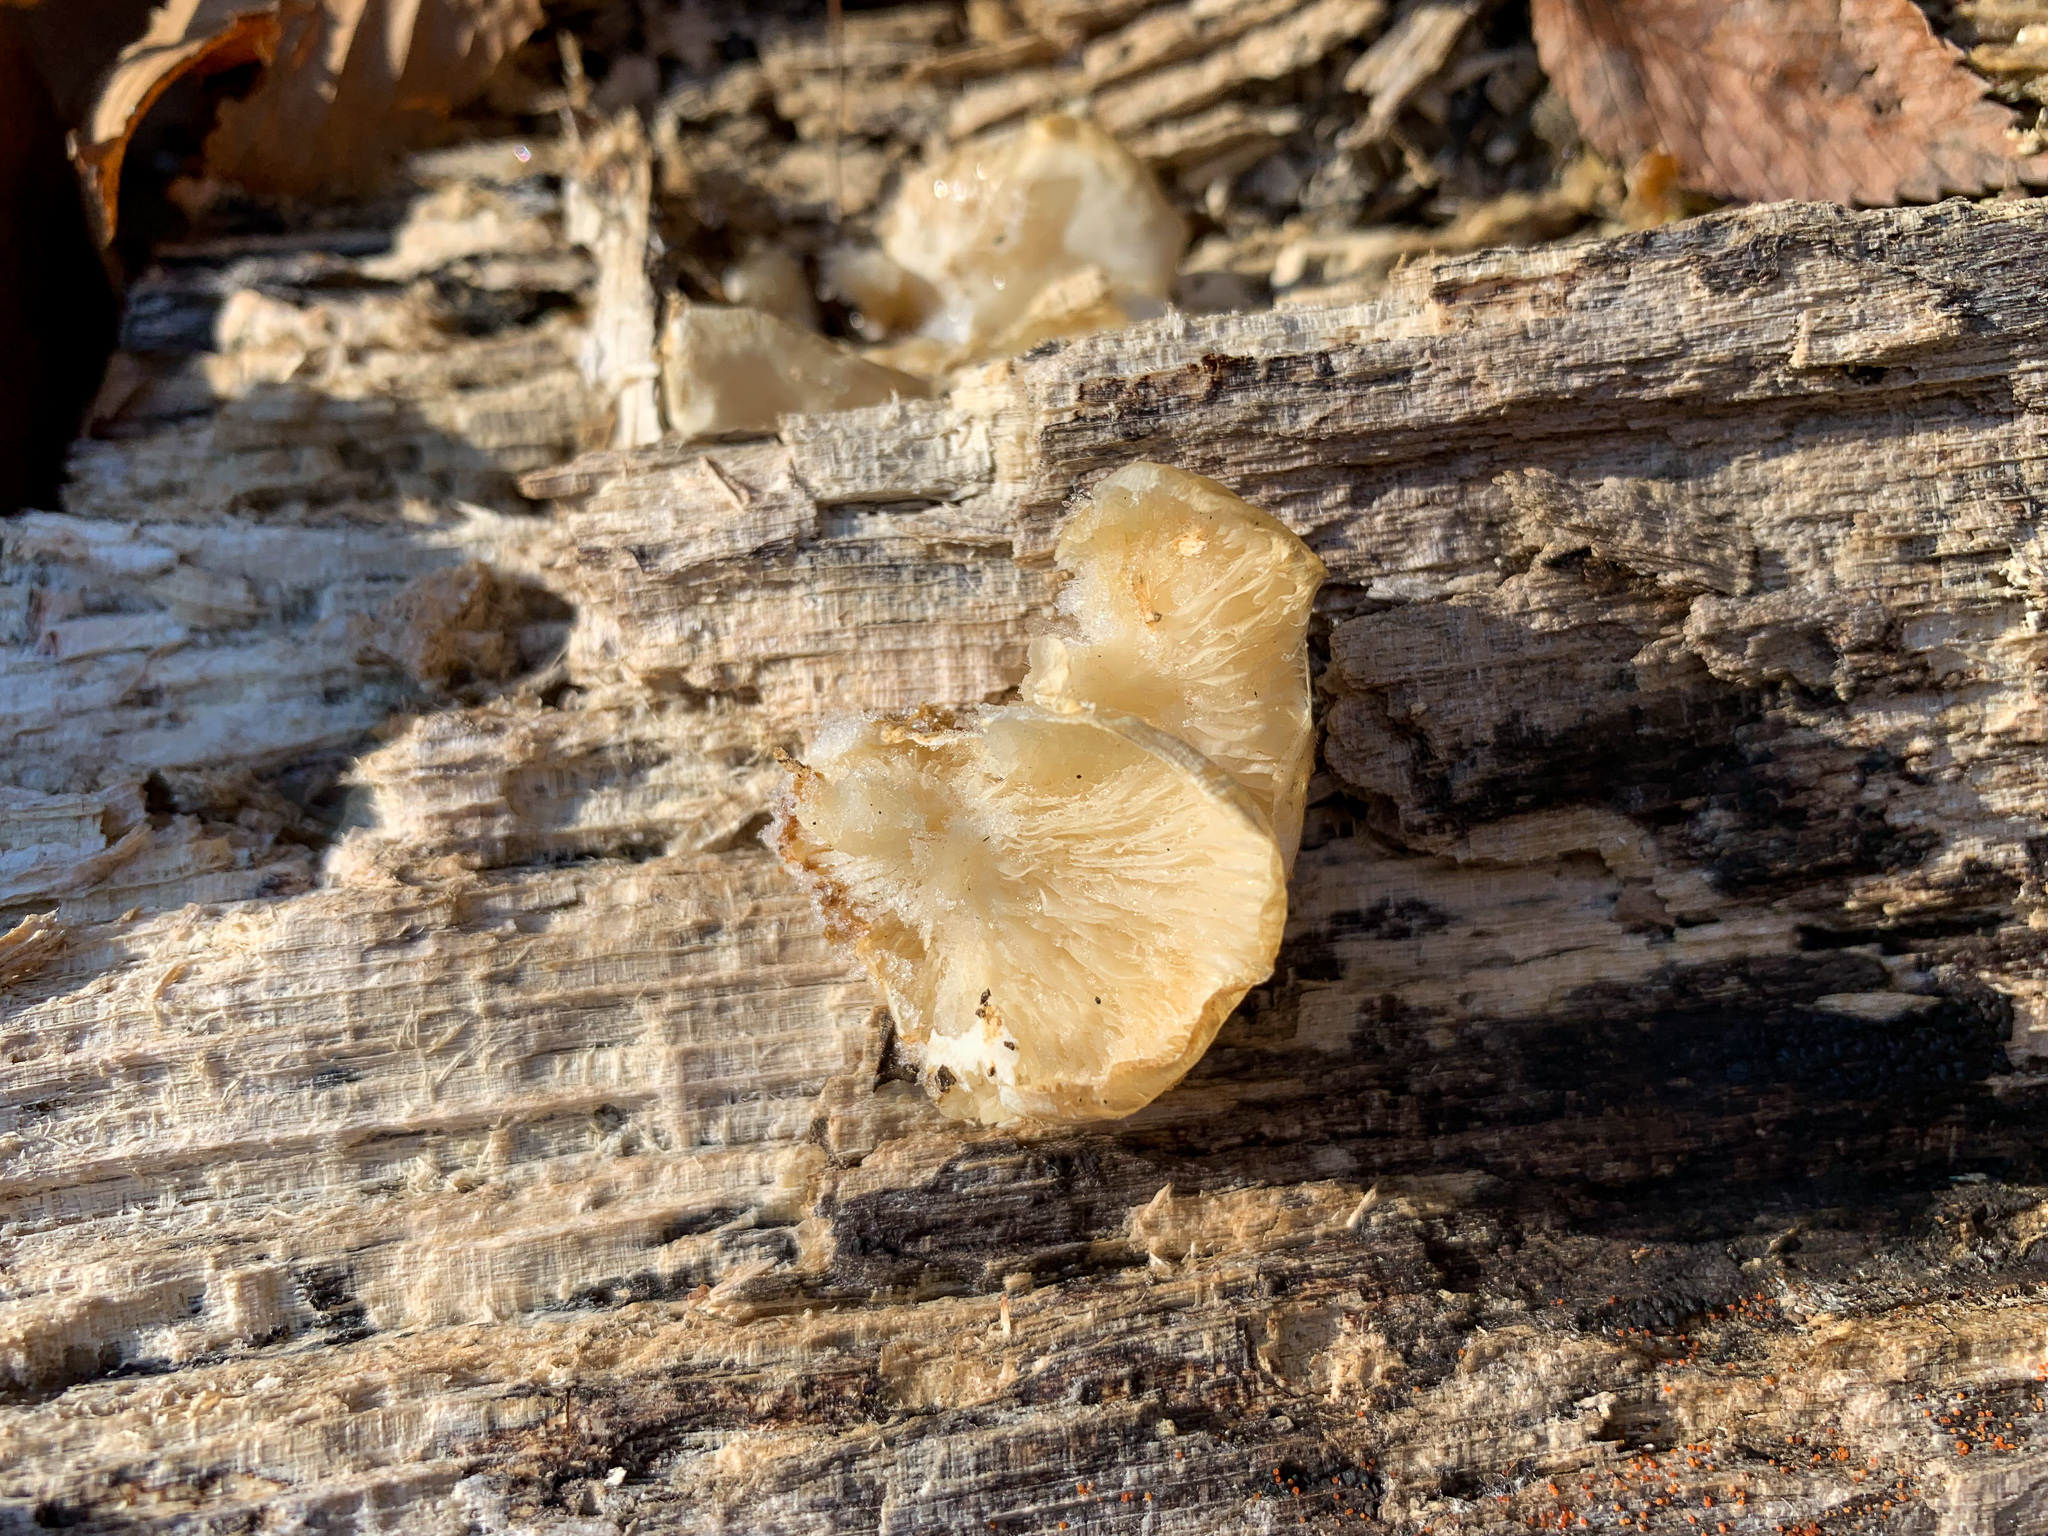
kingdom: Fungi
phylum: Basidiomycota
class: Agaricomycetes
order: Agaricales
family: Pleurotaceae
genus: Pleurotus
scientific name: Pleurotus ostreatus
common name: Oyster mushroom
